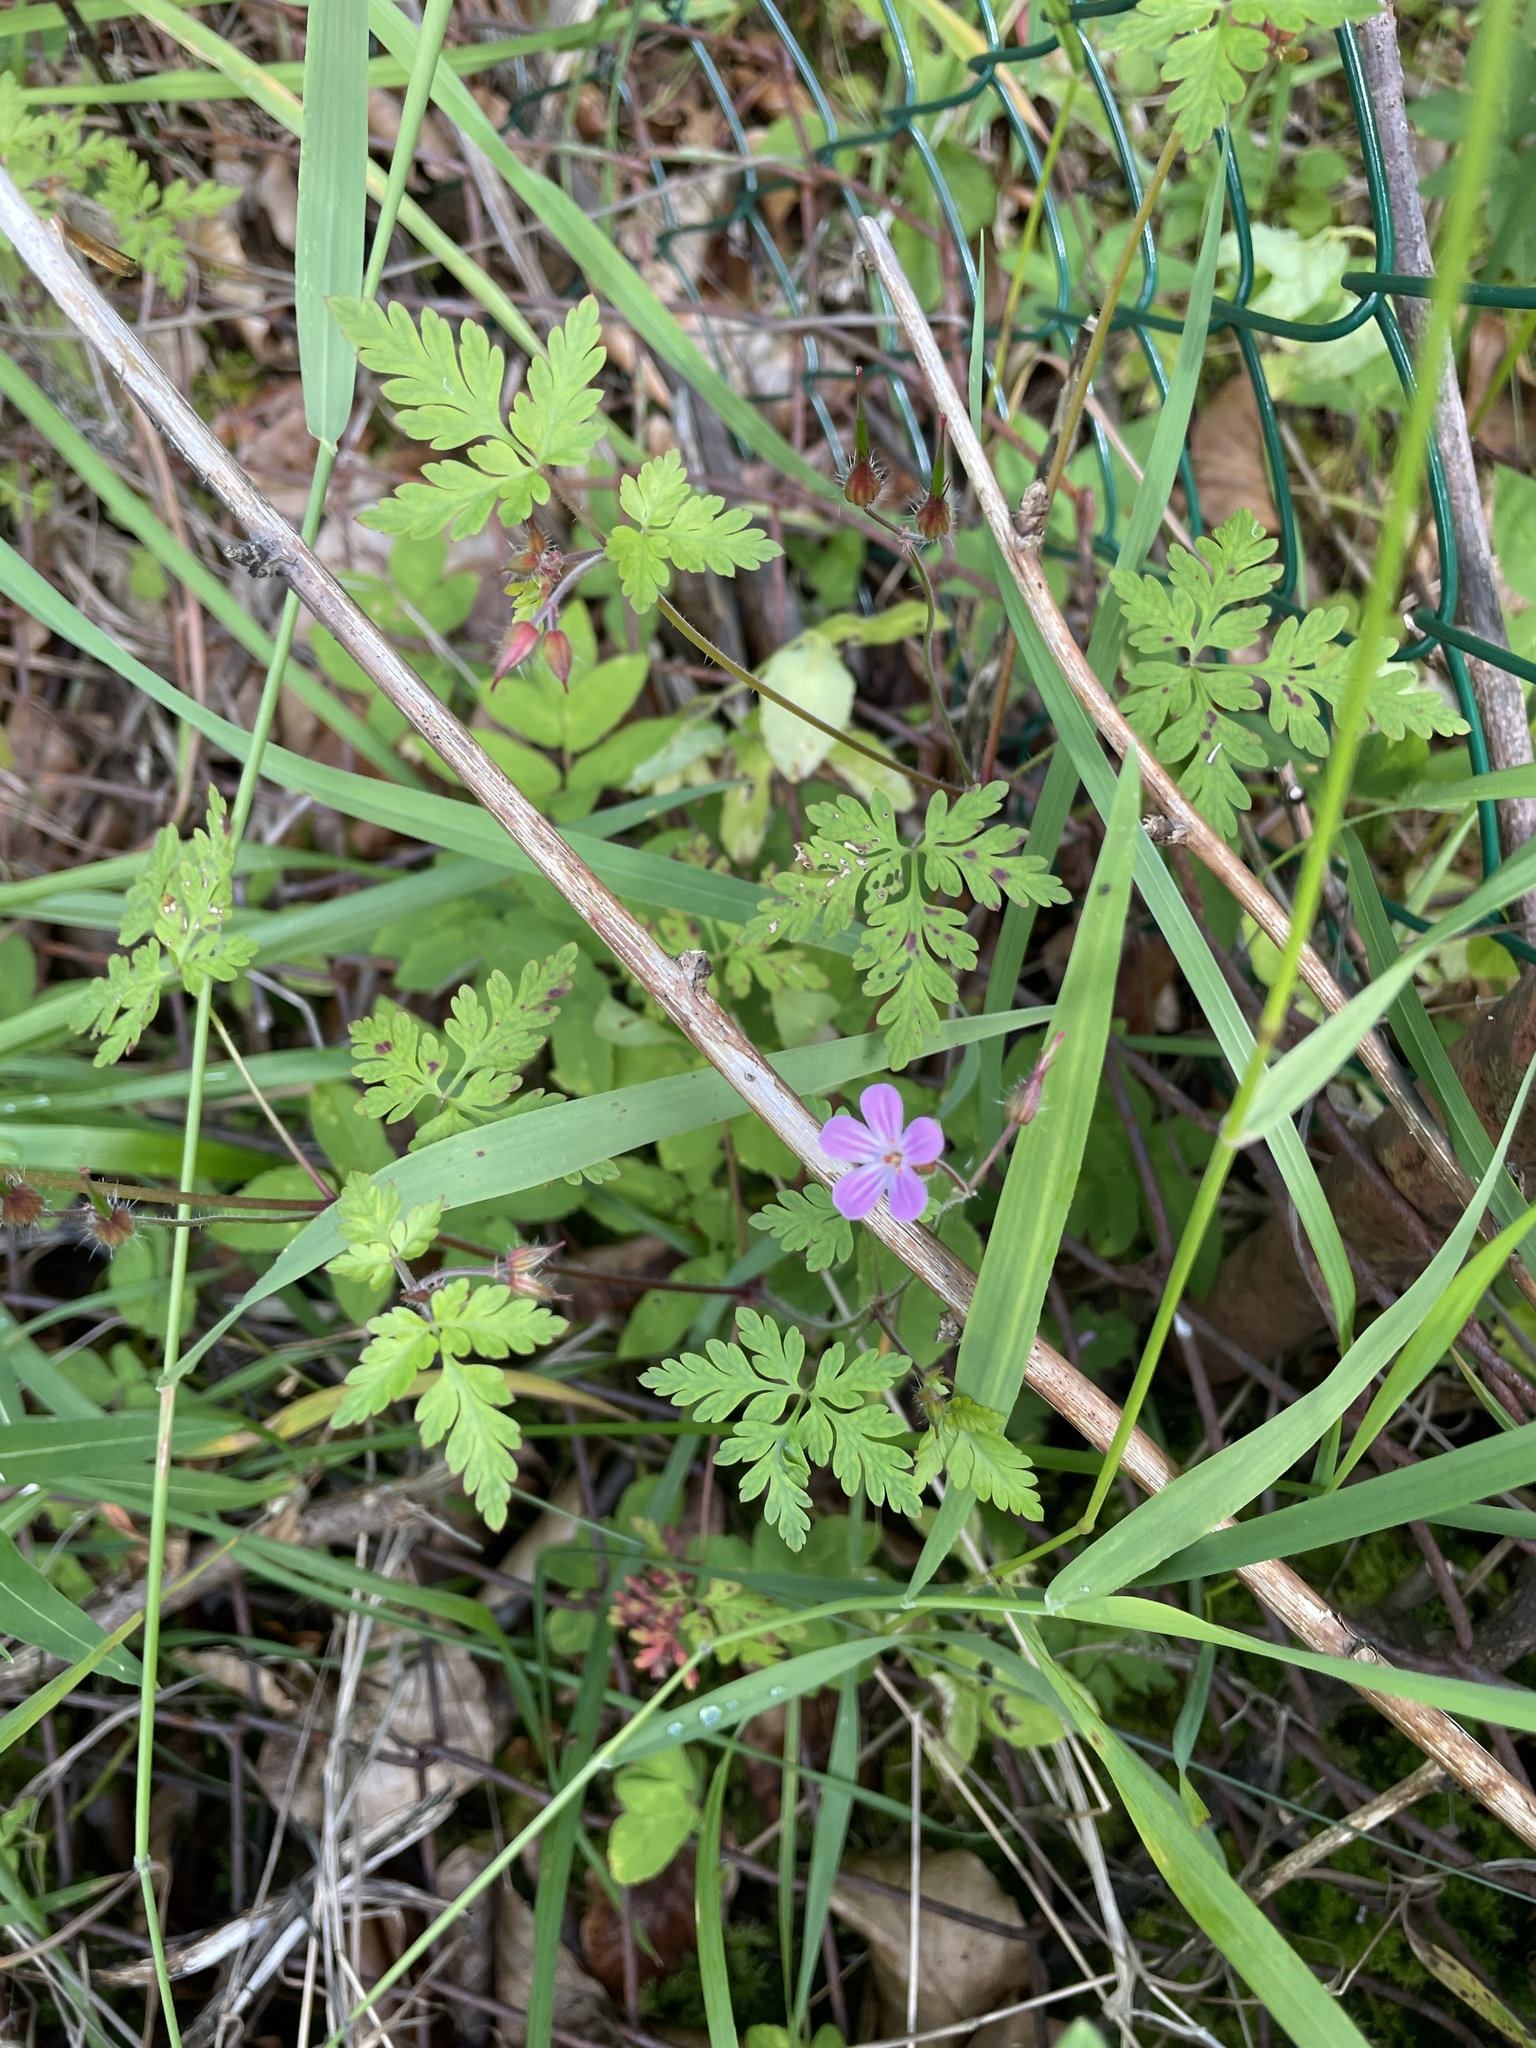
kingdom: Plantae
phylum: Tracheophyta
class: Magnoliopsida
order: Geraniales
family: Geraniaceae
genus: Geranium
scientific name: Geranium robertianum
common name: Herb-robert
